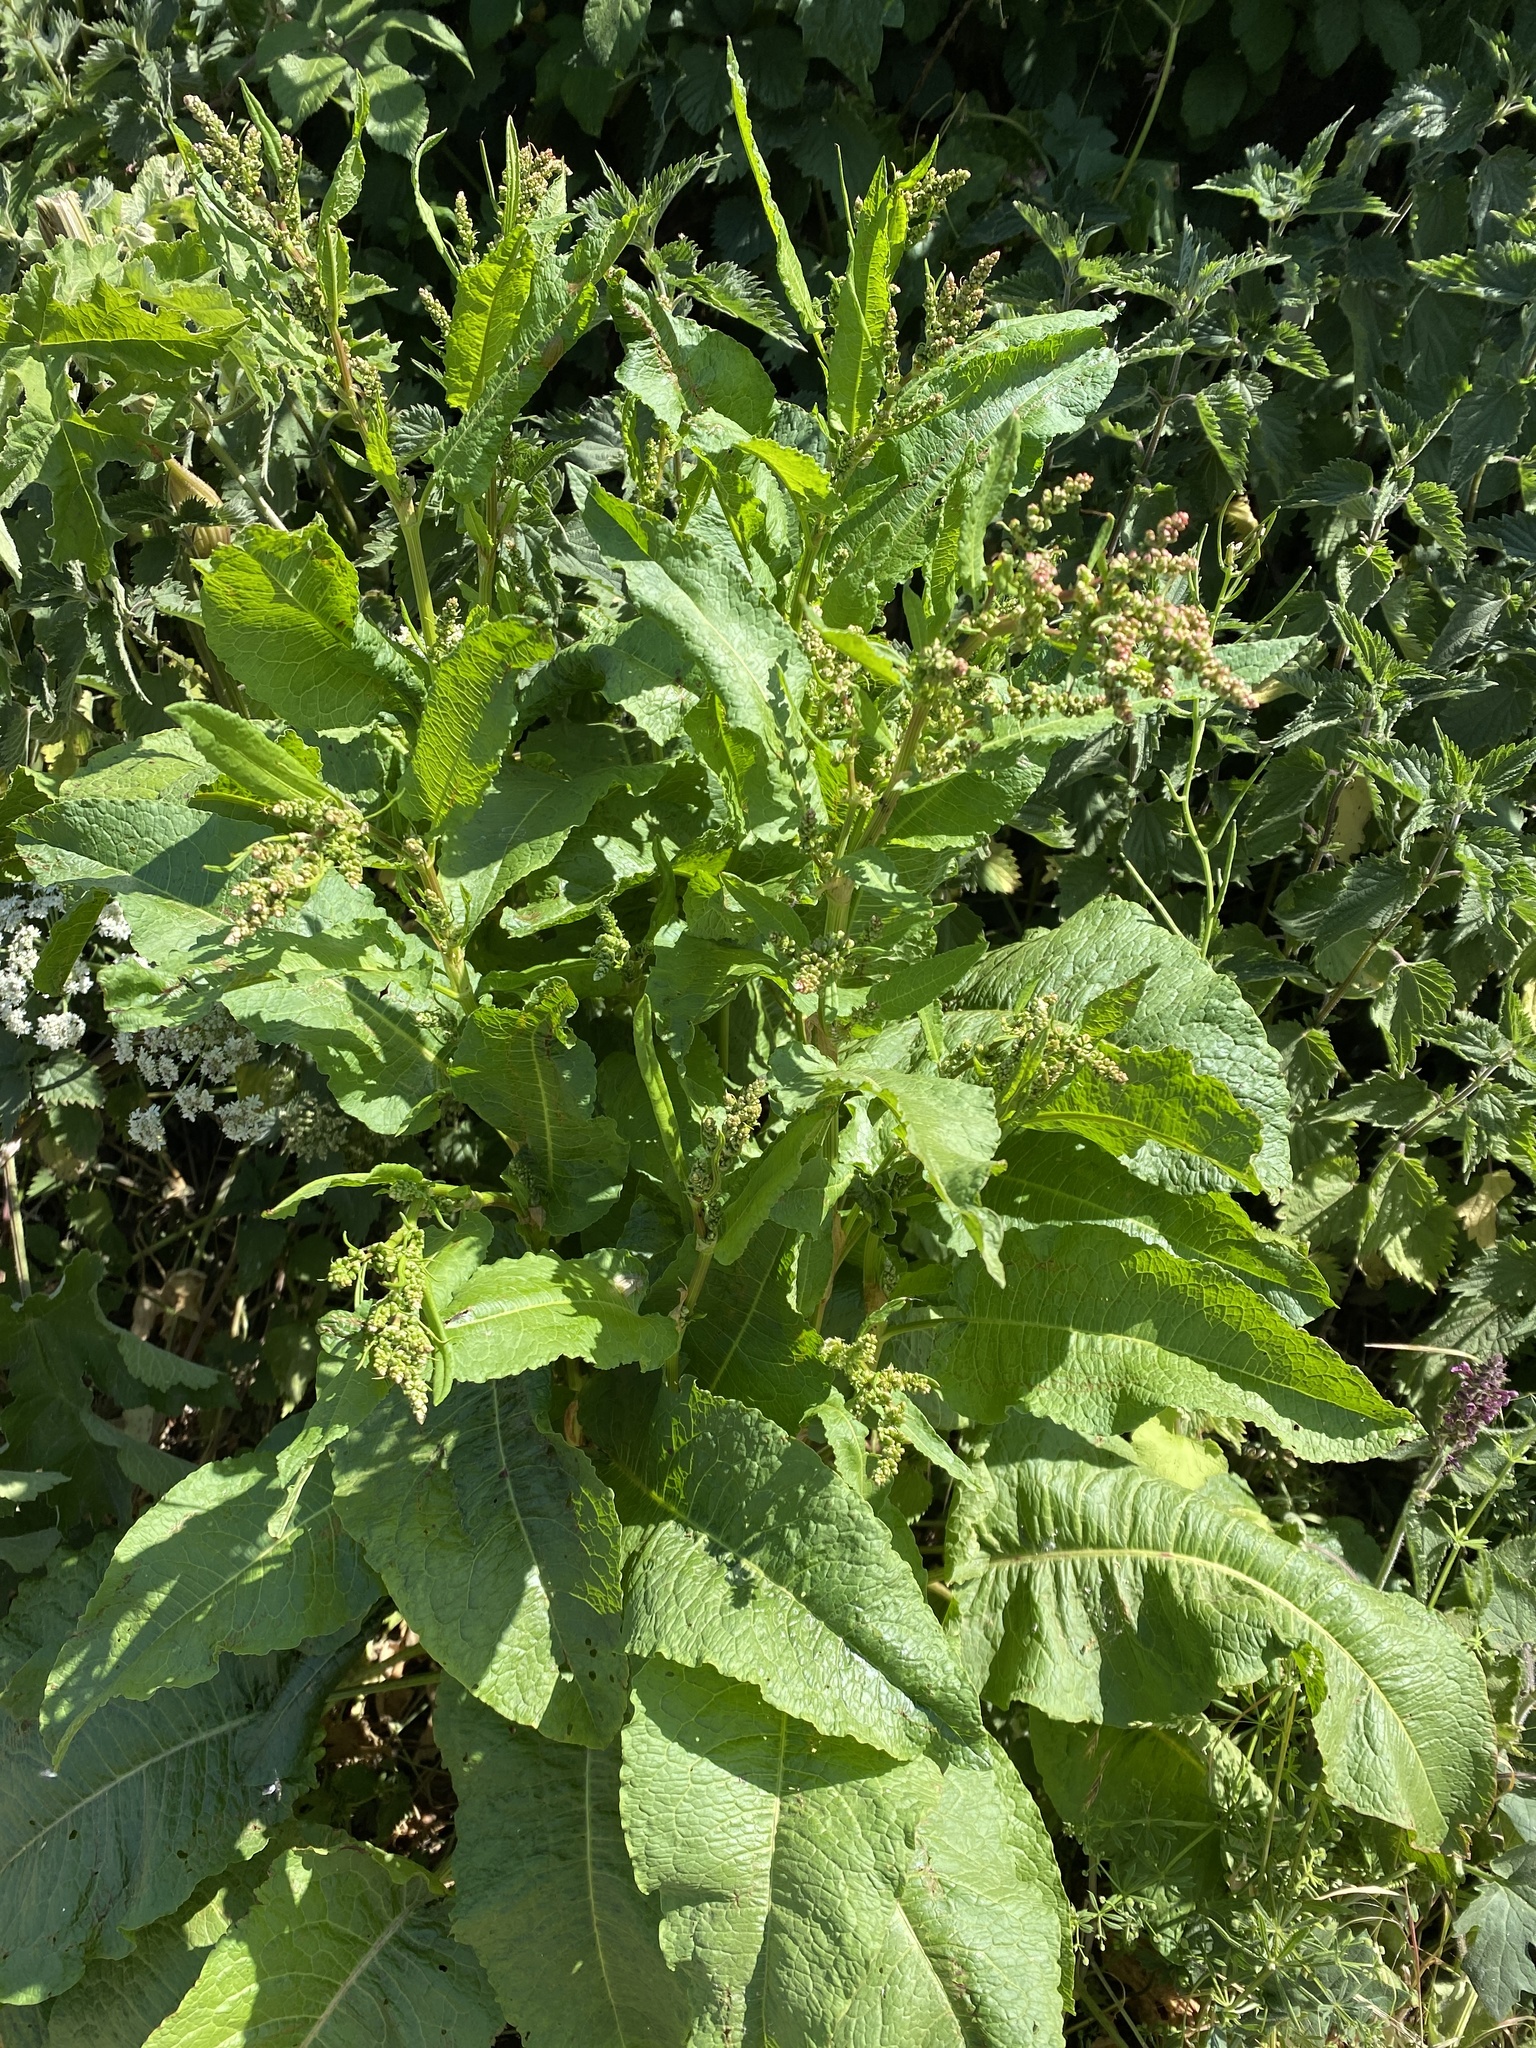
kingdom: Plantae
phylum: Tracheophyta
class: Magnoliopsida
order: Caryophyllales
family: Polygonaceae
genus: Rumex
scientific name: Rumex obtusifolius
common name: Bitter dock
